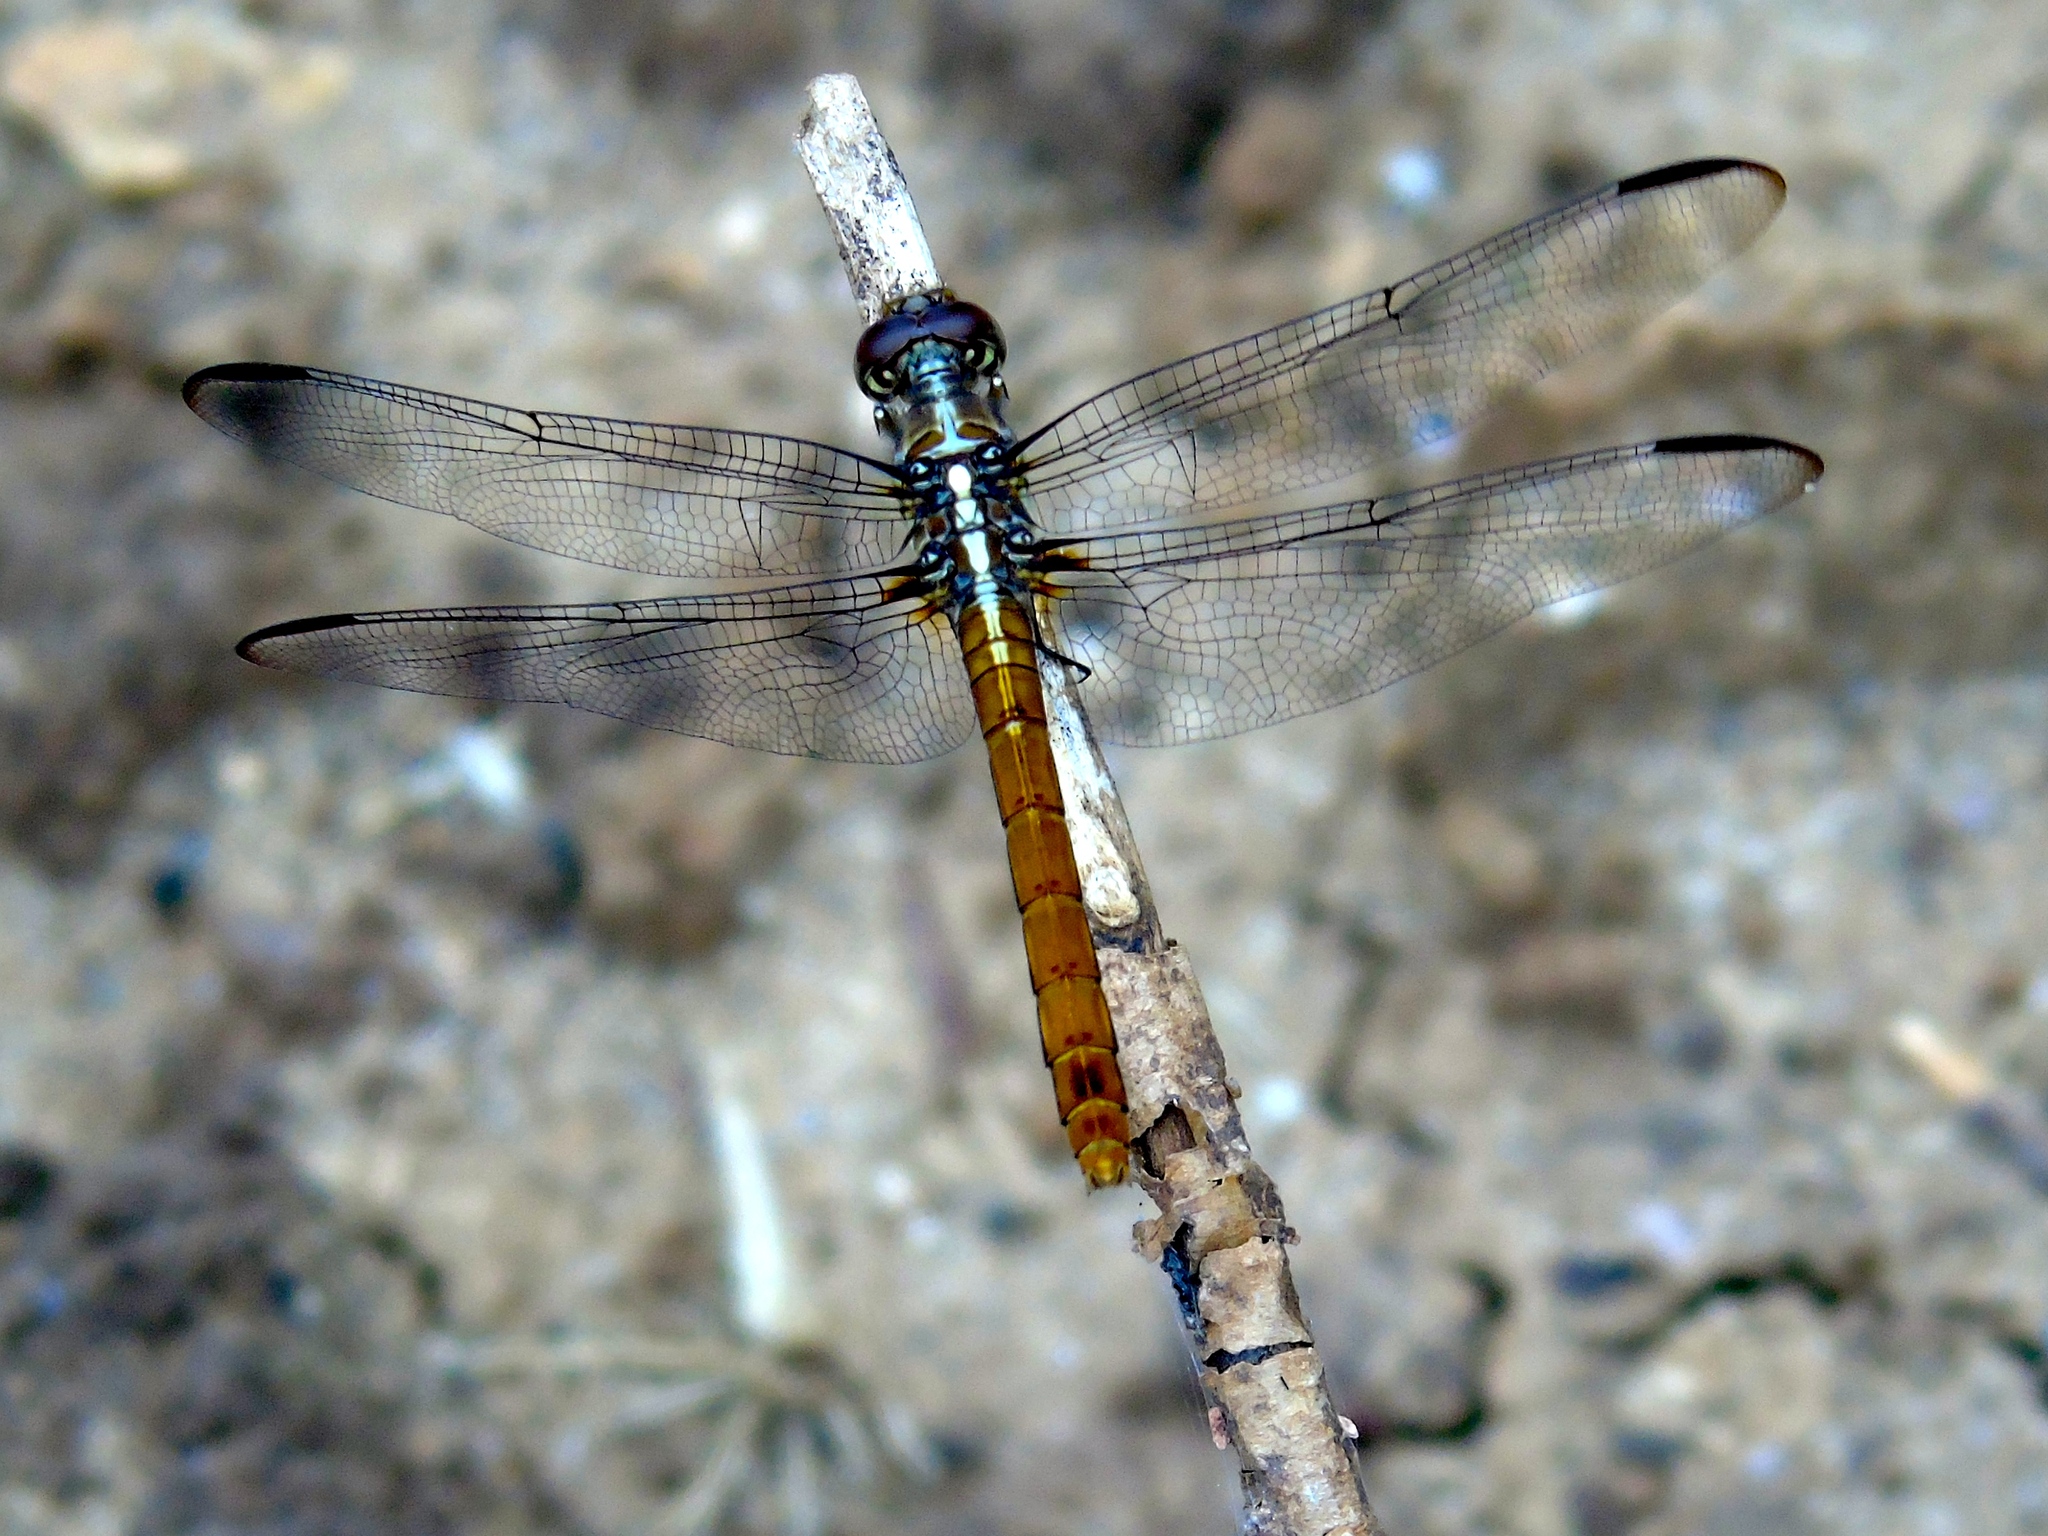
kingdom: Animalia
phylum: Arthropoda
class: Insecta
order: Odonata
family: Libellulidae
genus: Orthemis
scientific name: Orthemis
